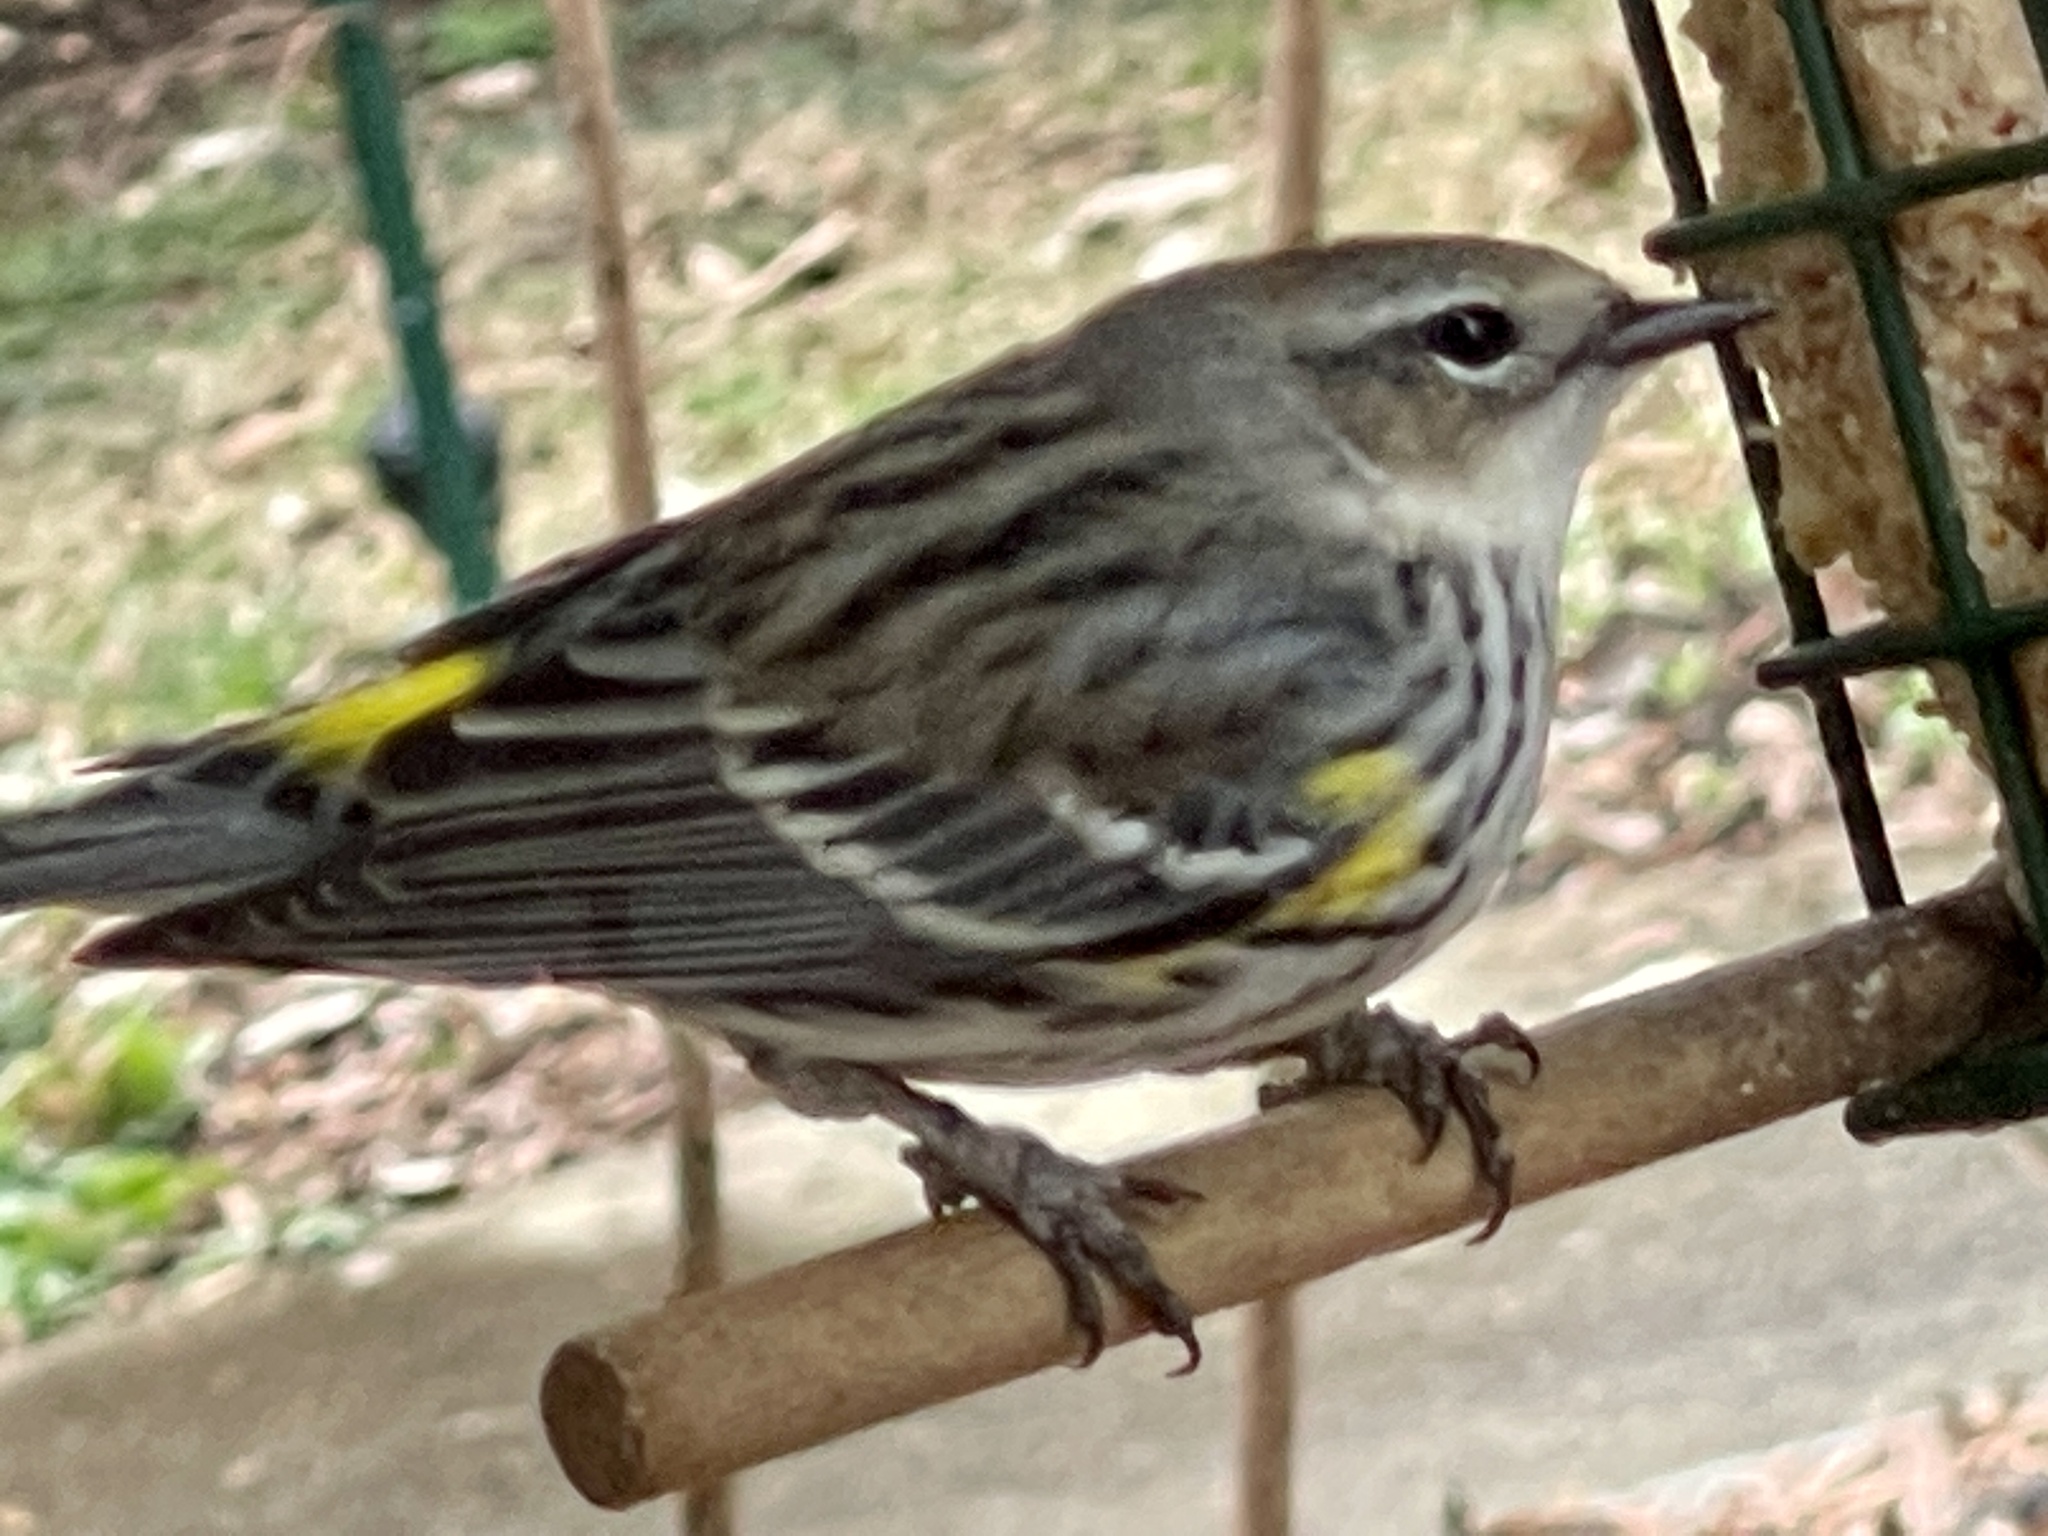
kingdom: Animalia
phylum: Chordata
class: Aves
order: Passeriformes
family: Parulidae
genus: Setophaga
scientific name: Setophaga coronata
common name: Myrtle warbler
